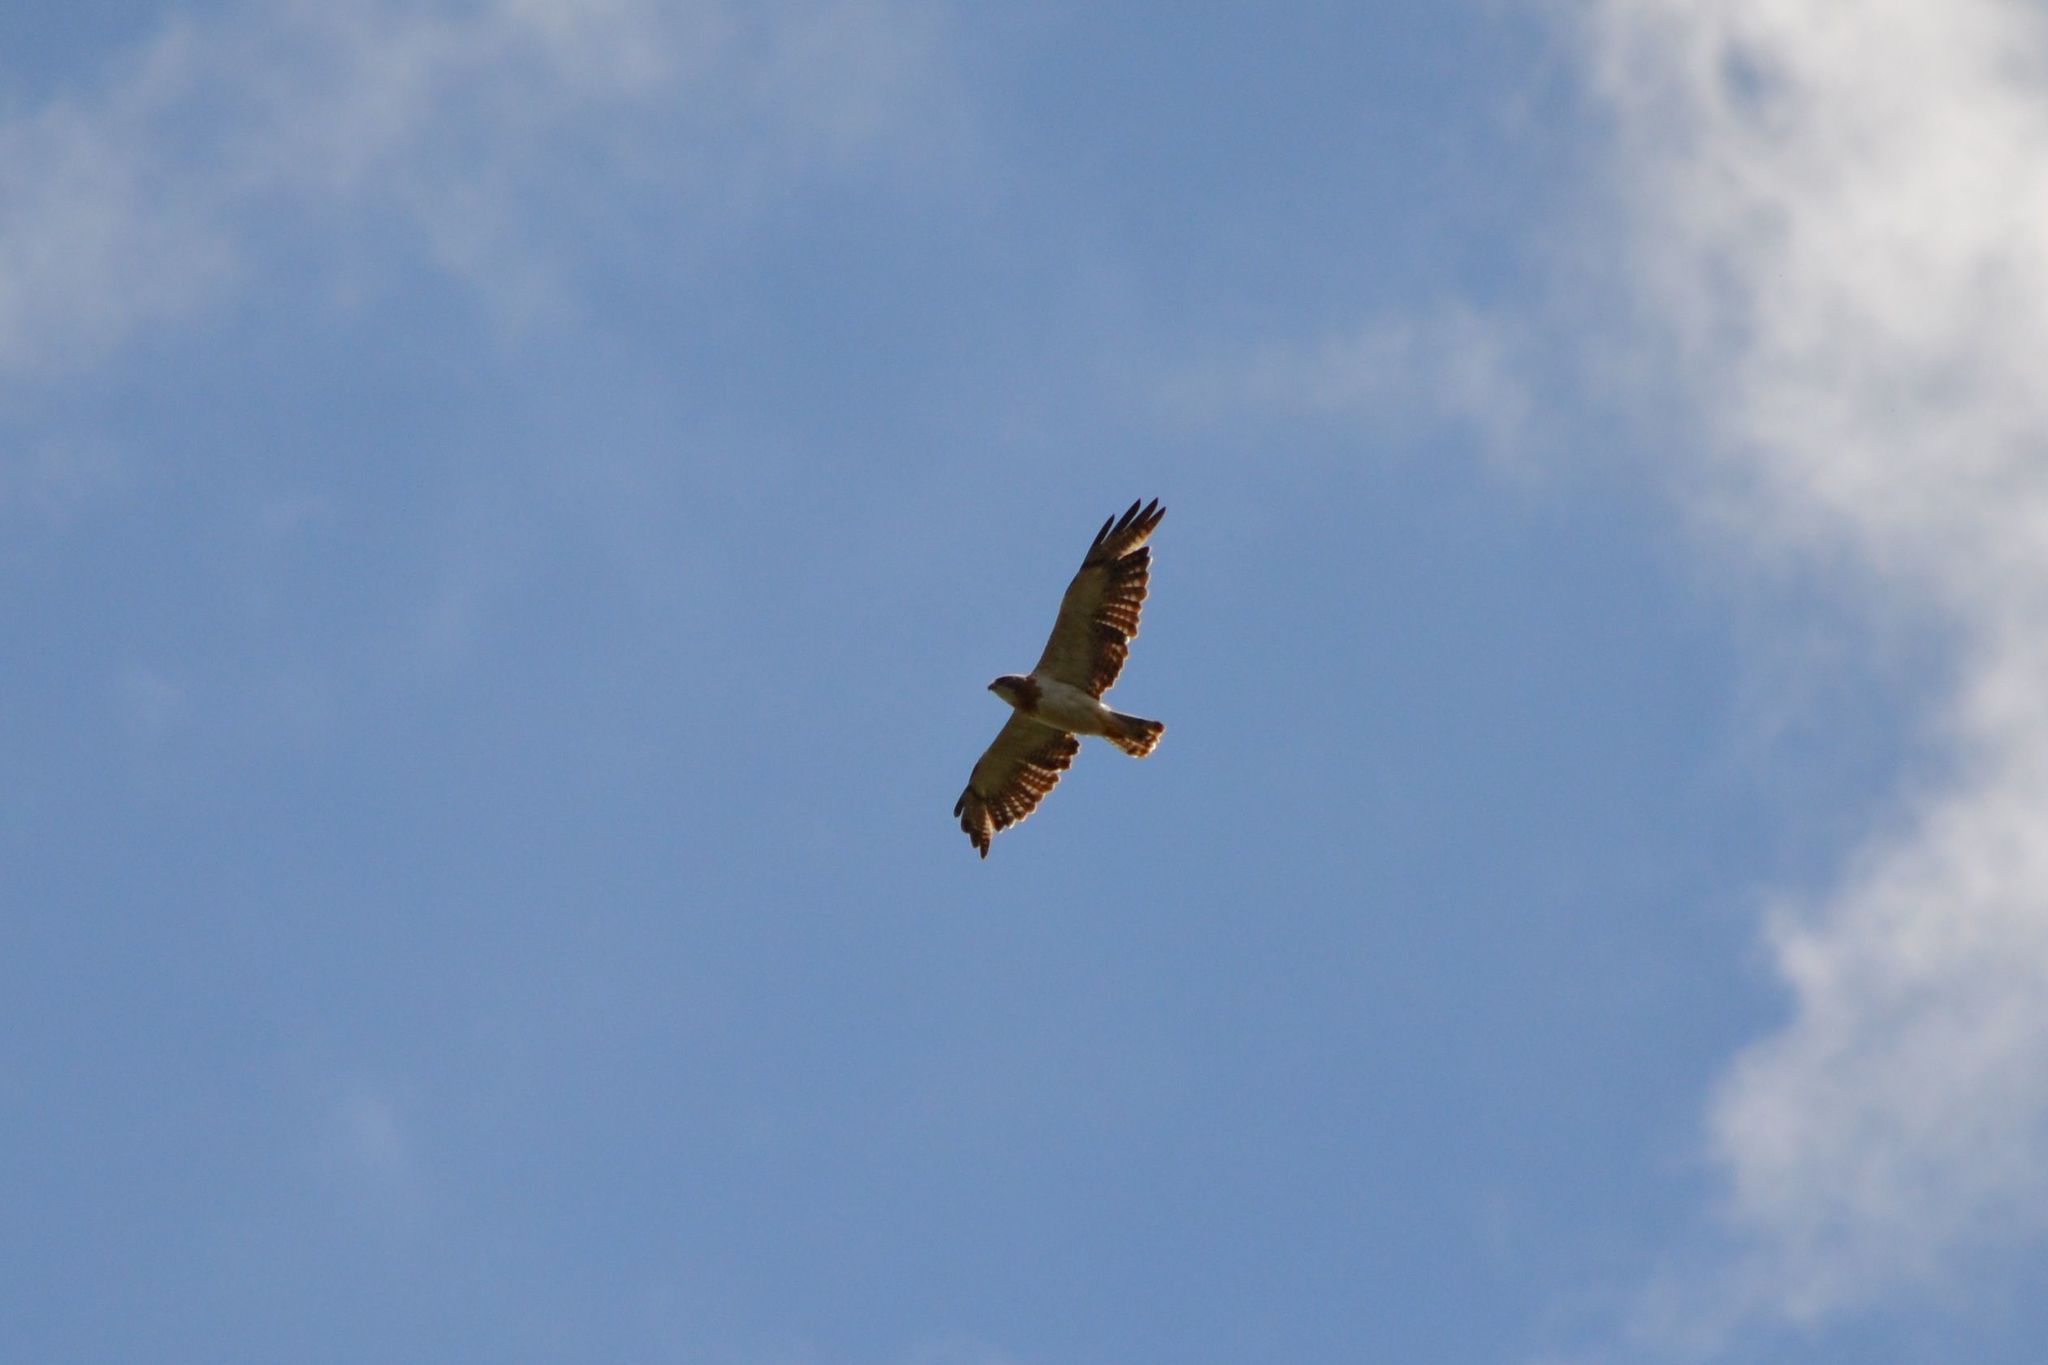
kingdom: Animalia
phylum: Chordata
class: Aves
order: Accipitriformes
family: Accipitridae
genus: Buteo
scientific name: Buteo swainsoni
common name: Swainson's hawk
